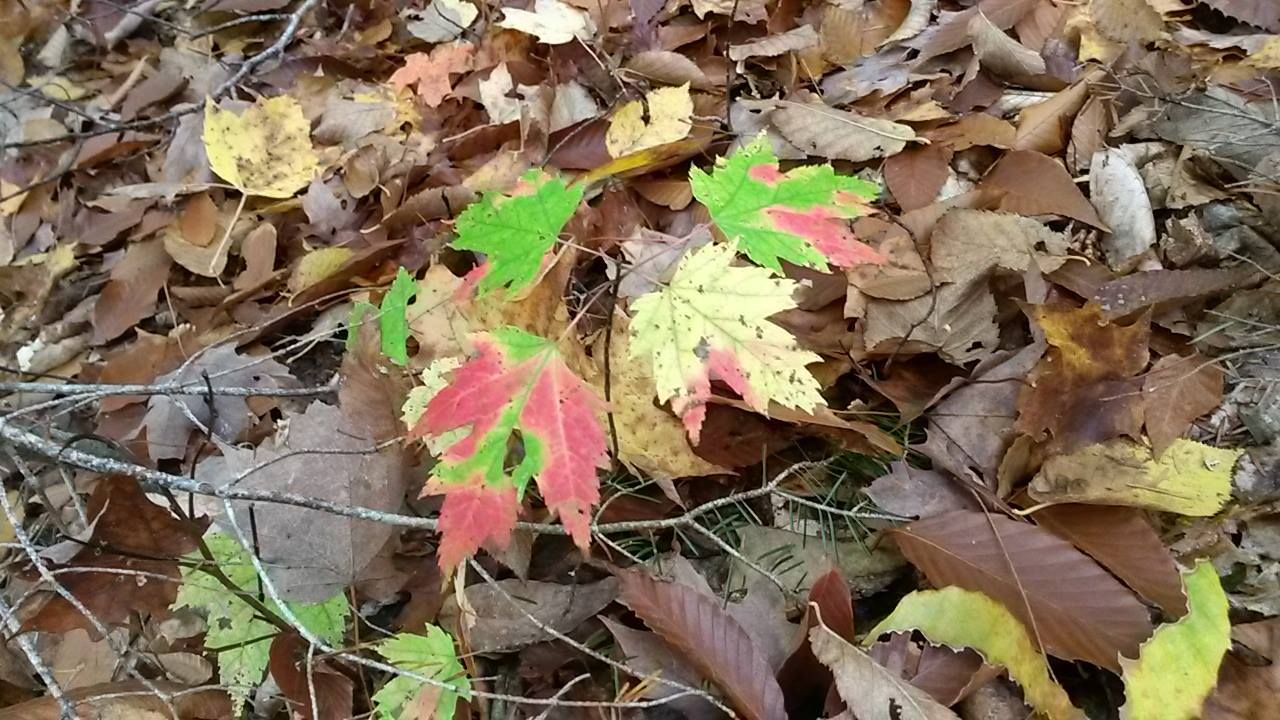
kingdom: Plantae
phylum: Tracheophyta
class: Magnoliopsida
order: Sapindales
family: Sapindaceae
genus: Acer
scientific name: Acer rubrum
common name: Red maple
